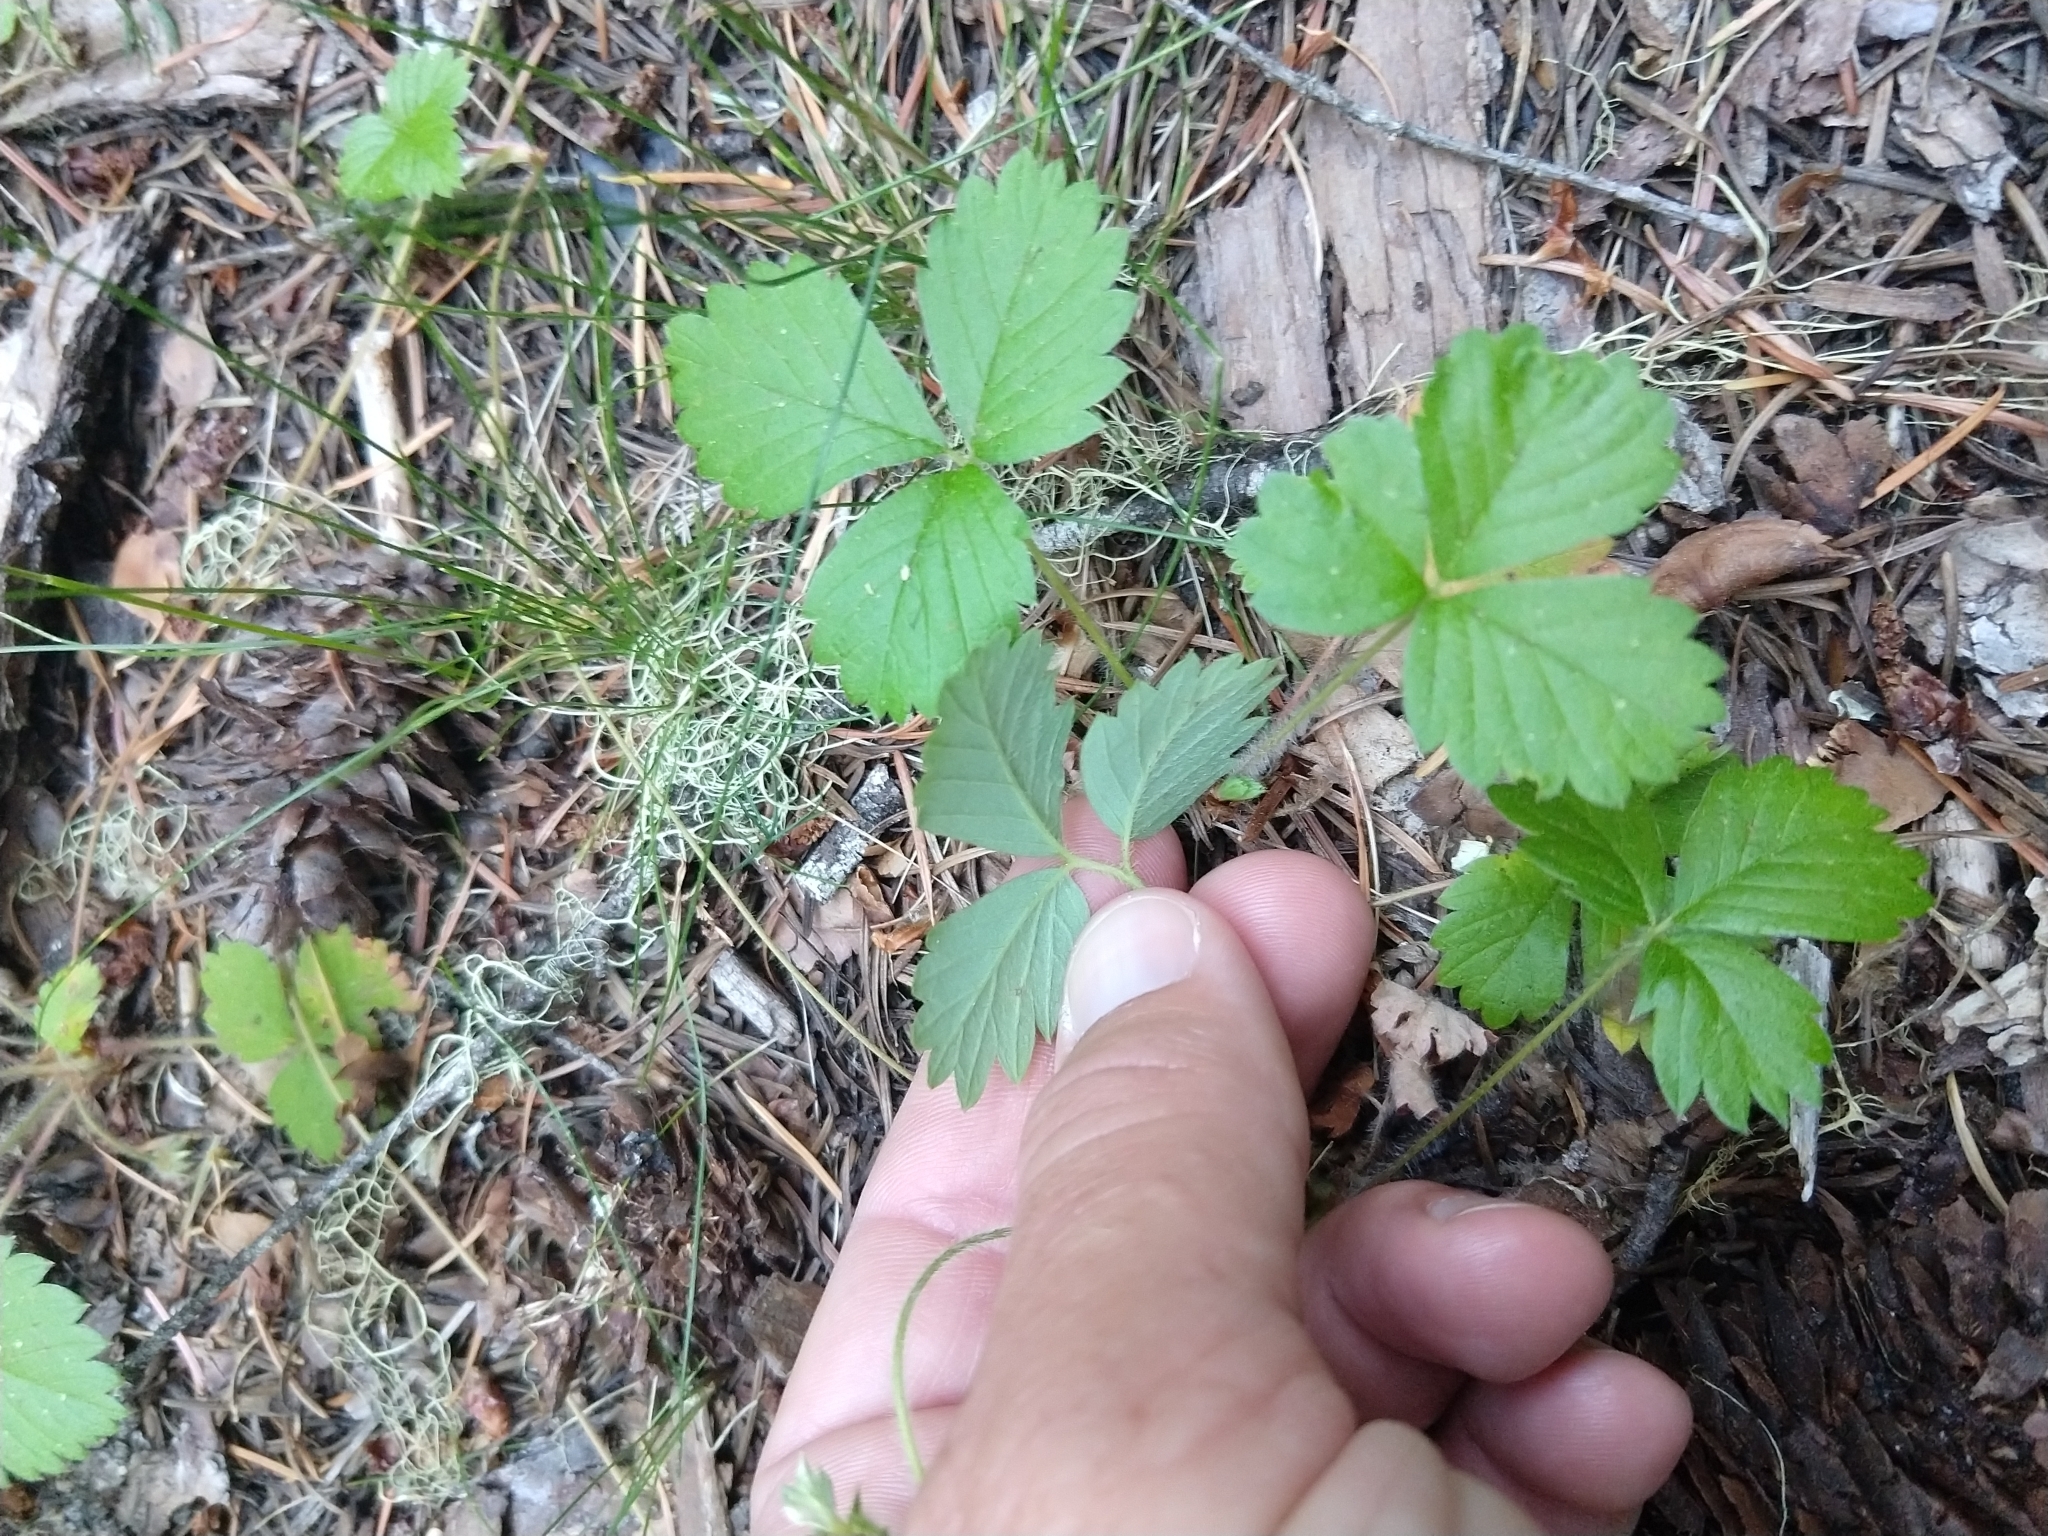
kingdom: Plantae
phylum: Tracheophyta
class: Magnoliopsida
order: Rosales
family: Rosaceae
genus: Fragaria
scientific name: Fragaria virginiana
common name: Thickleaved wild strawberry
